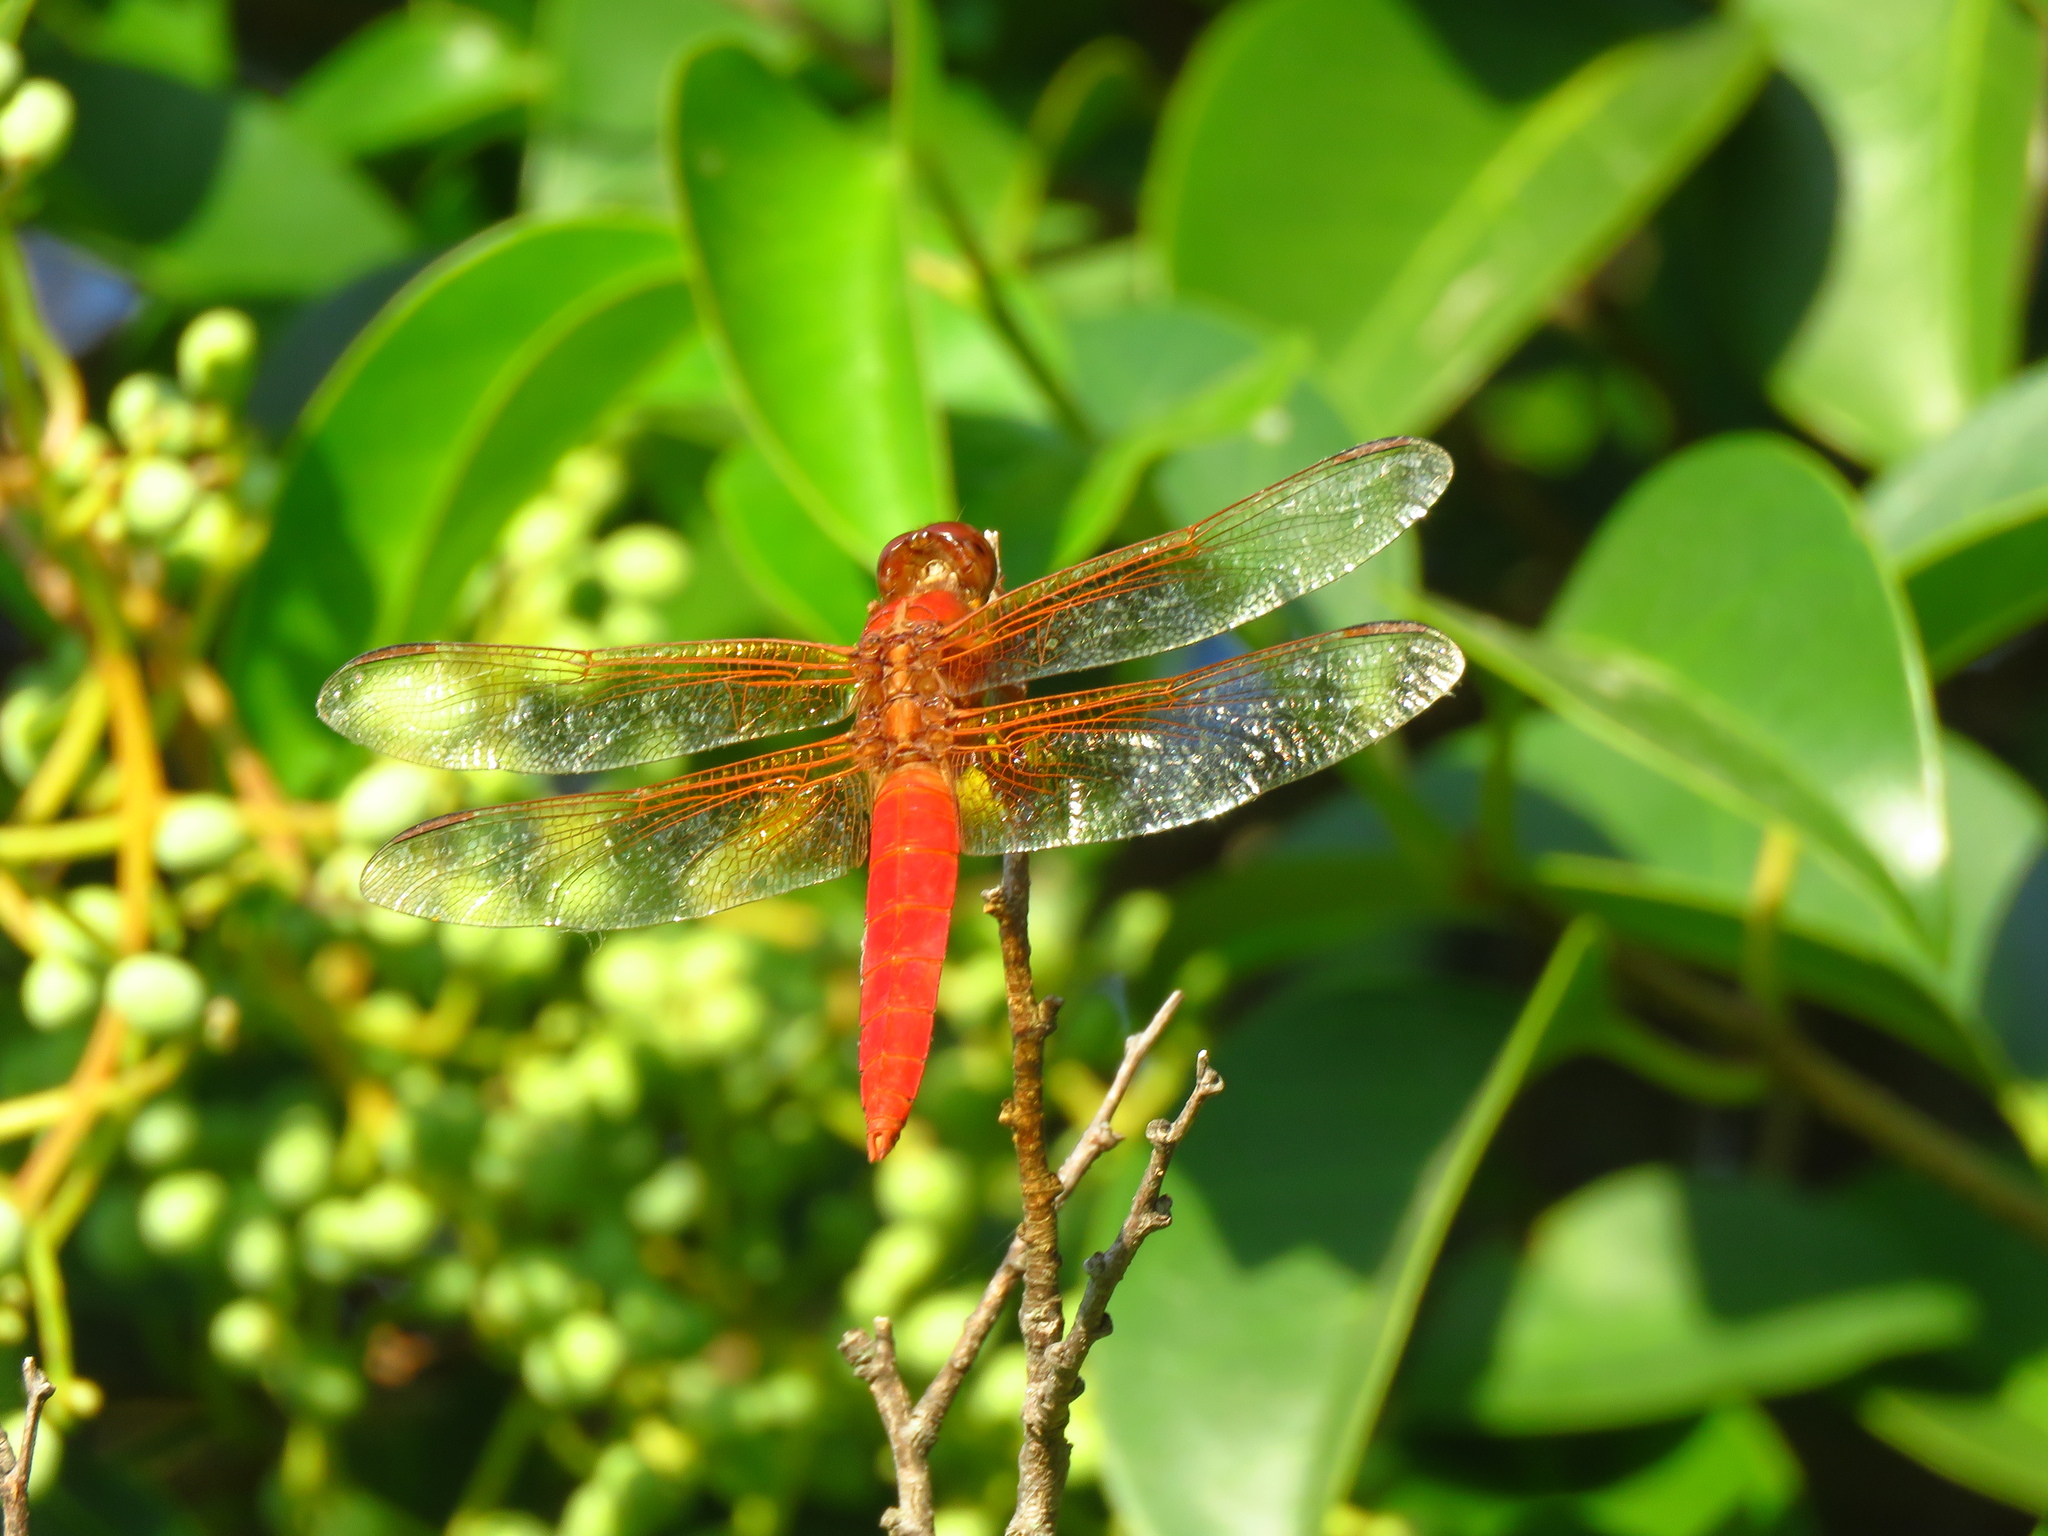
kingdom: Animalia
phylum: Arthropoda
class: Insecta
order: Odonata
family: Libellulidae
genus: Libellula
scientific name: Libellula croceipennis
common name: Neon skimmer
